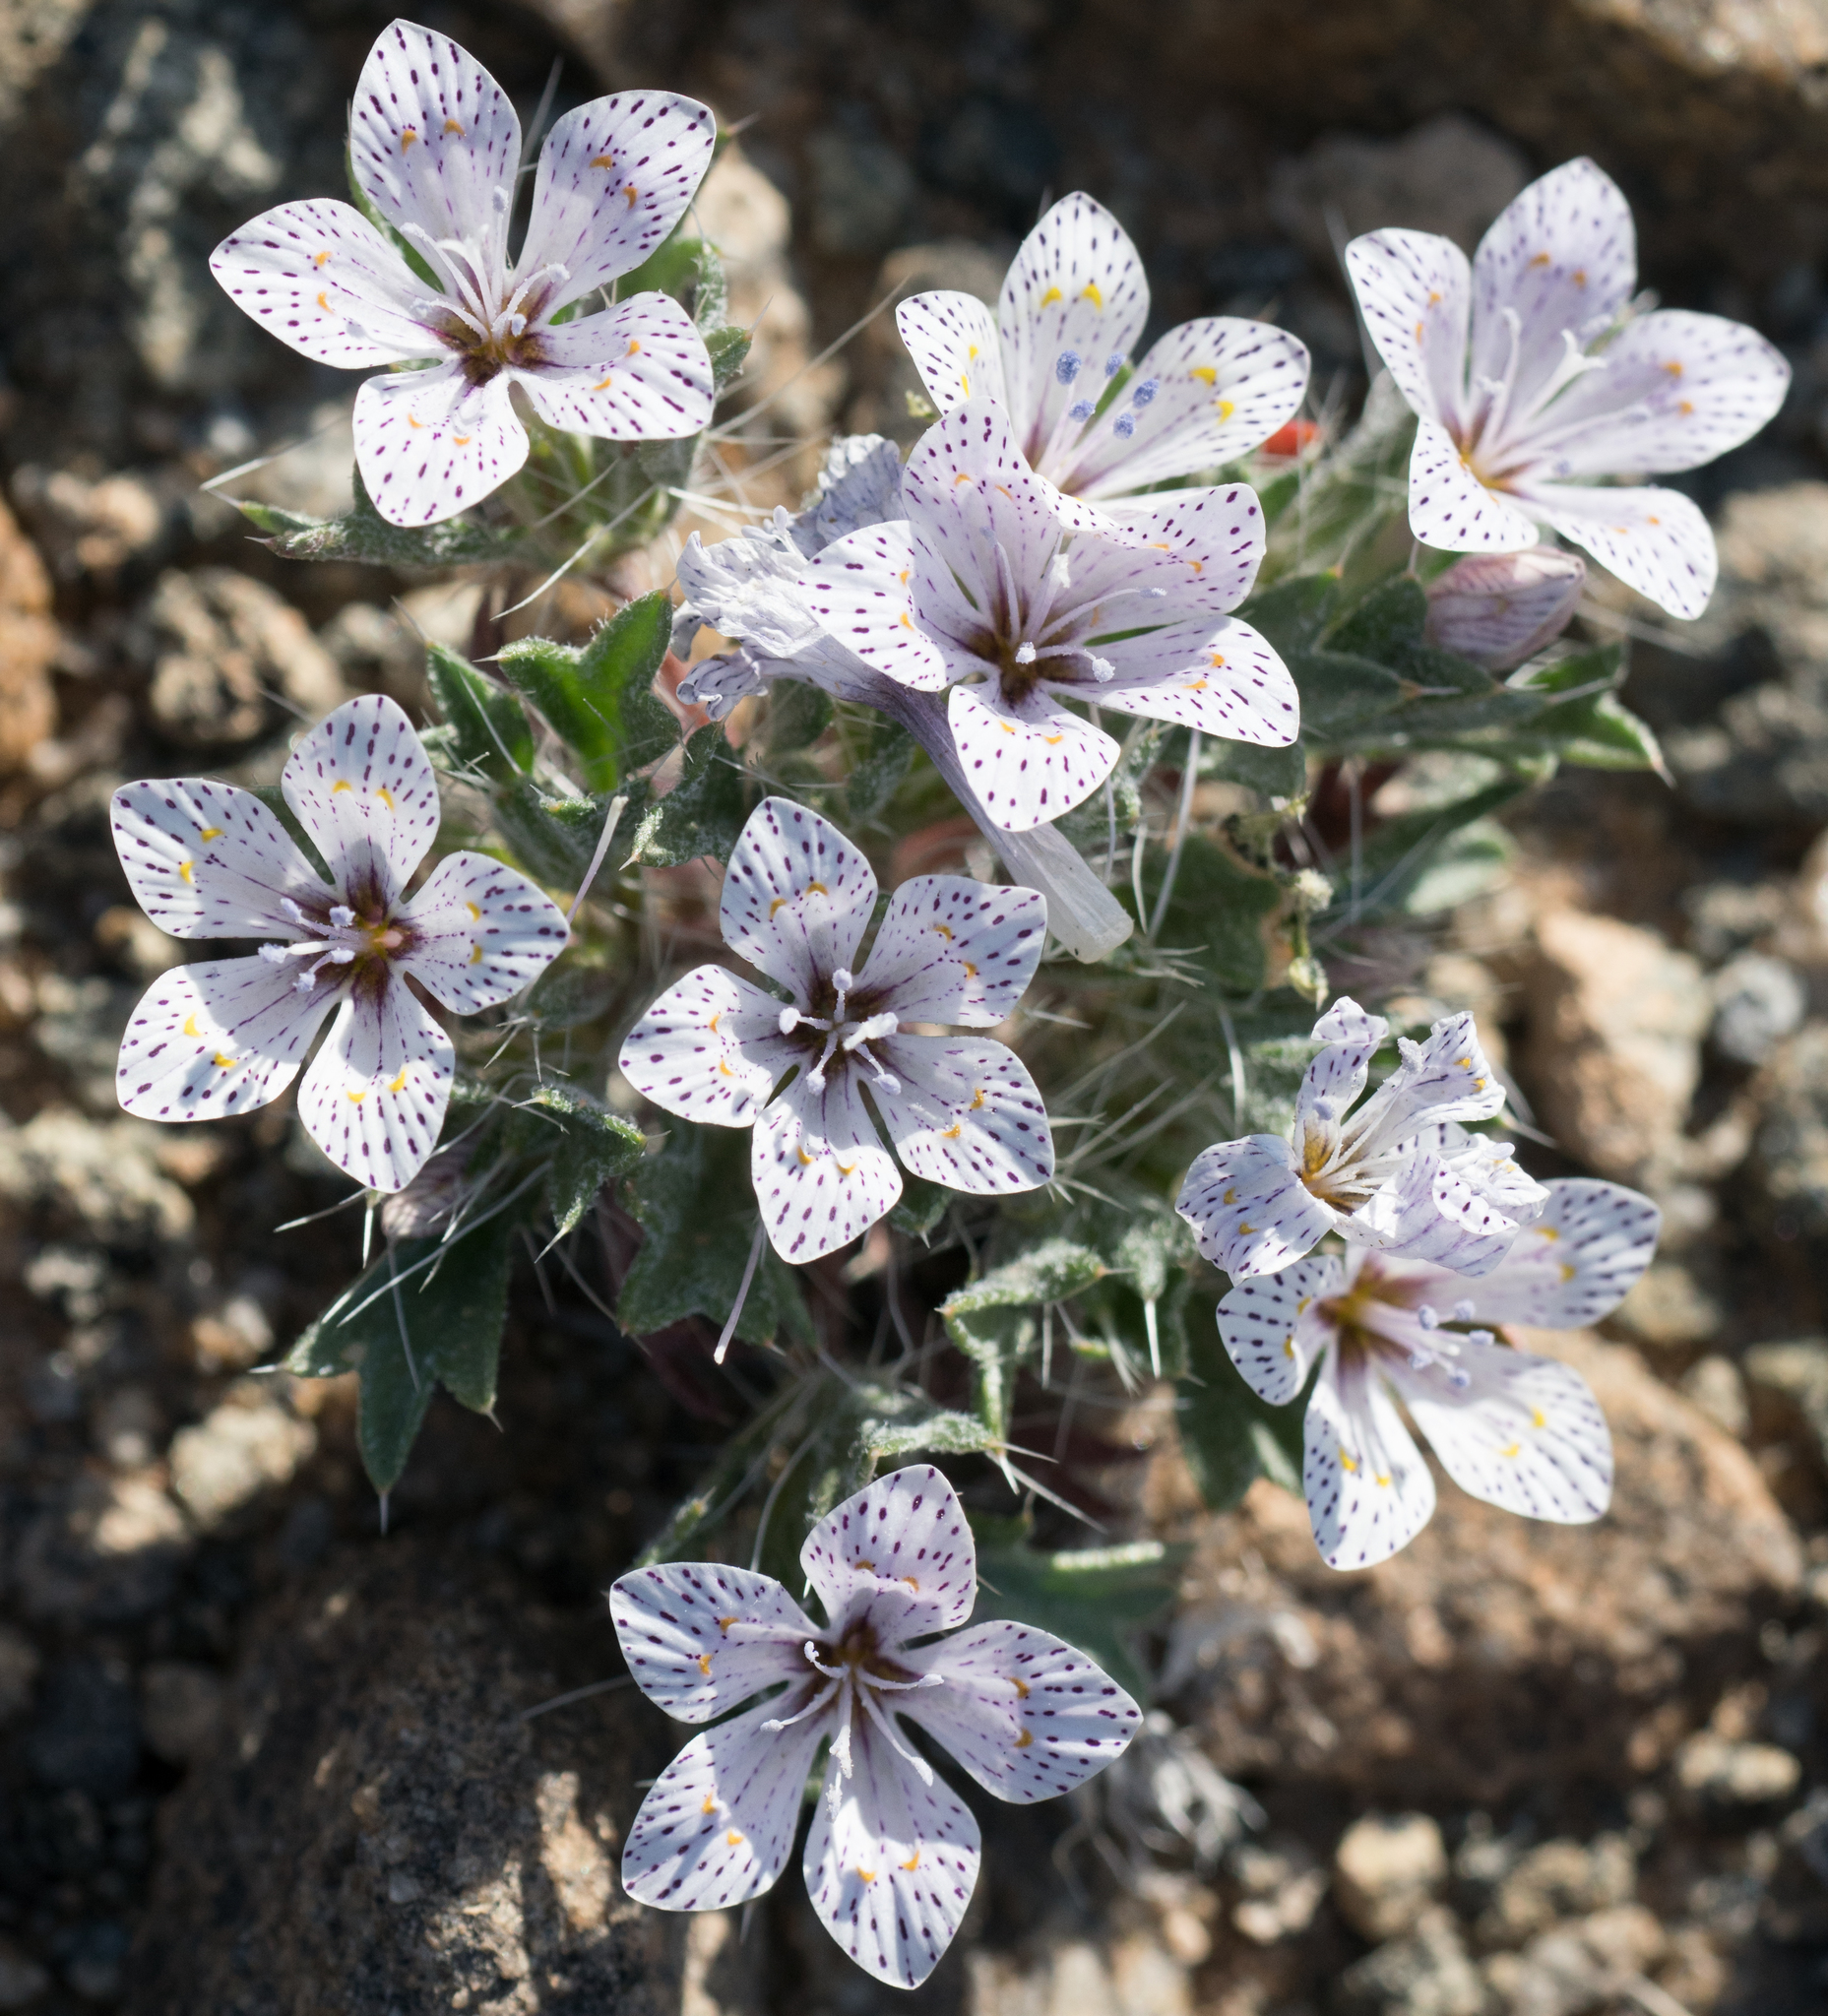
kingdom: Plantae
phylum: Tracheophyta
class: Magnoliopsida
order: Ericales
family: Polemoniaceae
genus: Langloisia
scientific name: Langloisia setosissima
